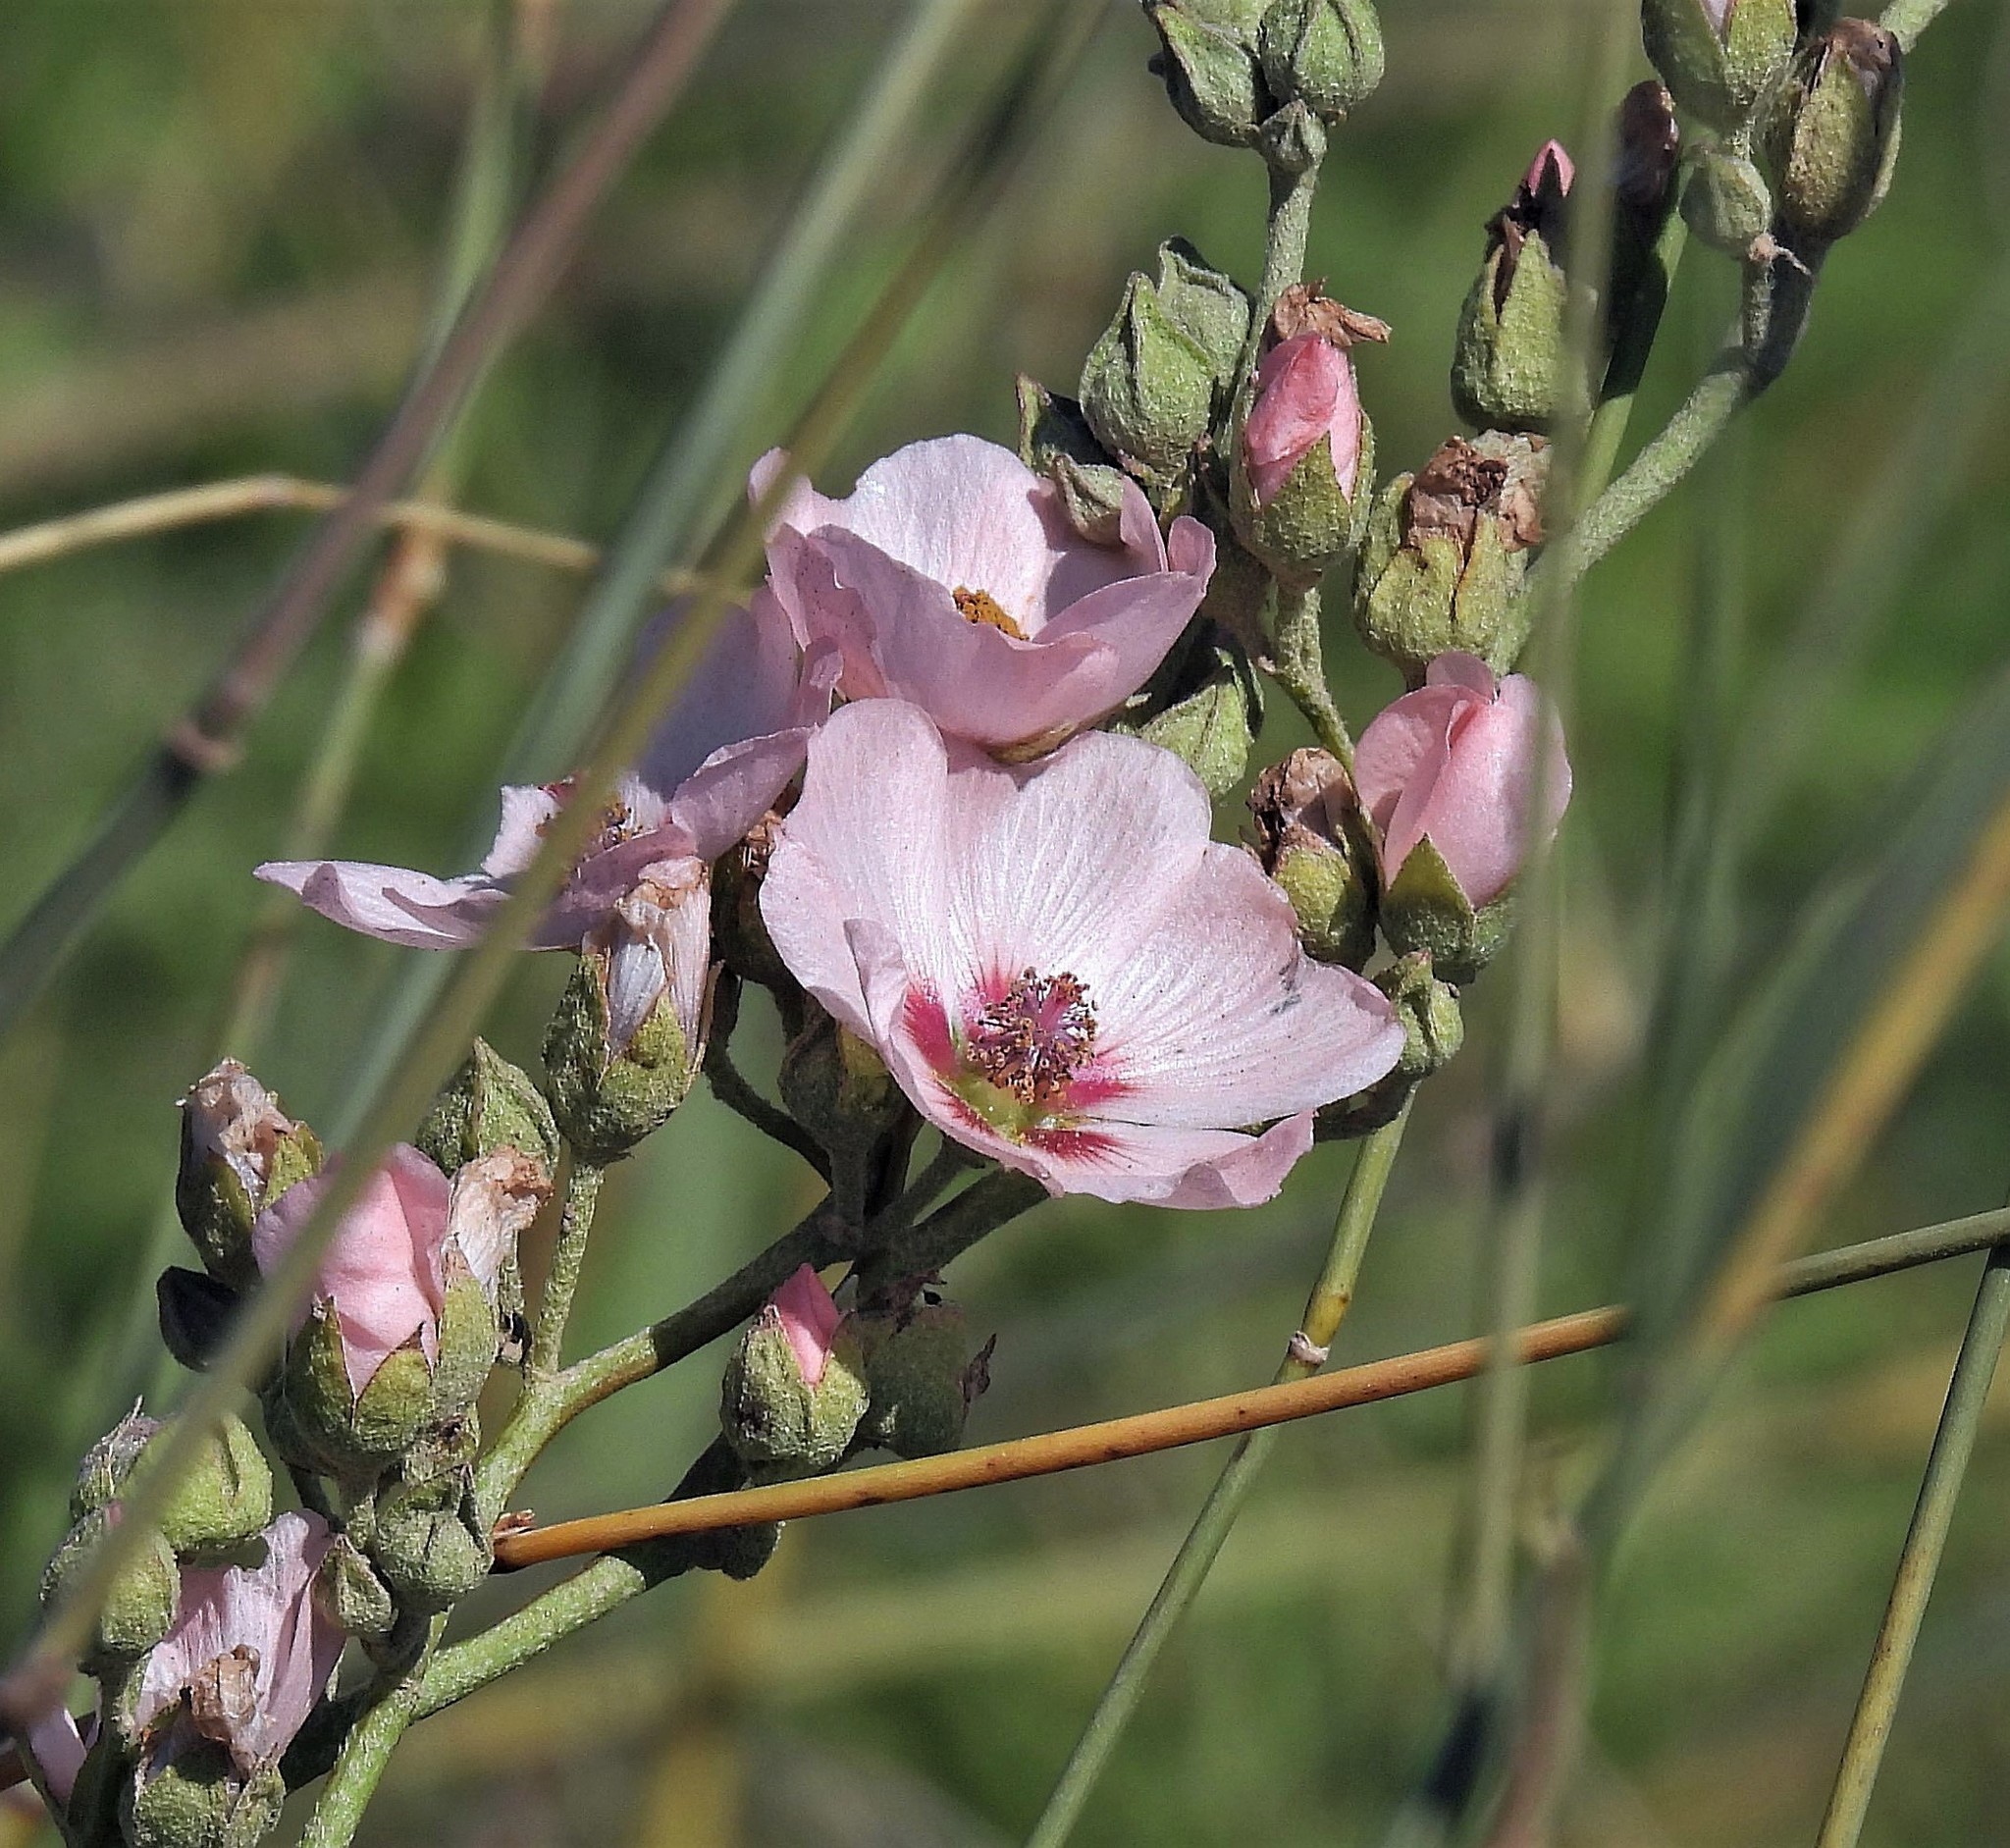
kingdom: Plantae
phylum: Tracheophyta
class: Magnoliopsida
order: Malvales
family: Malvaceae
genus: Sphaeralcea
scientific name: Sphaeralcea chenopodifolia
